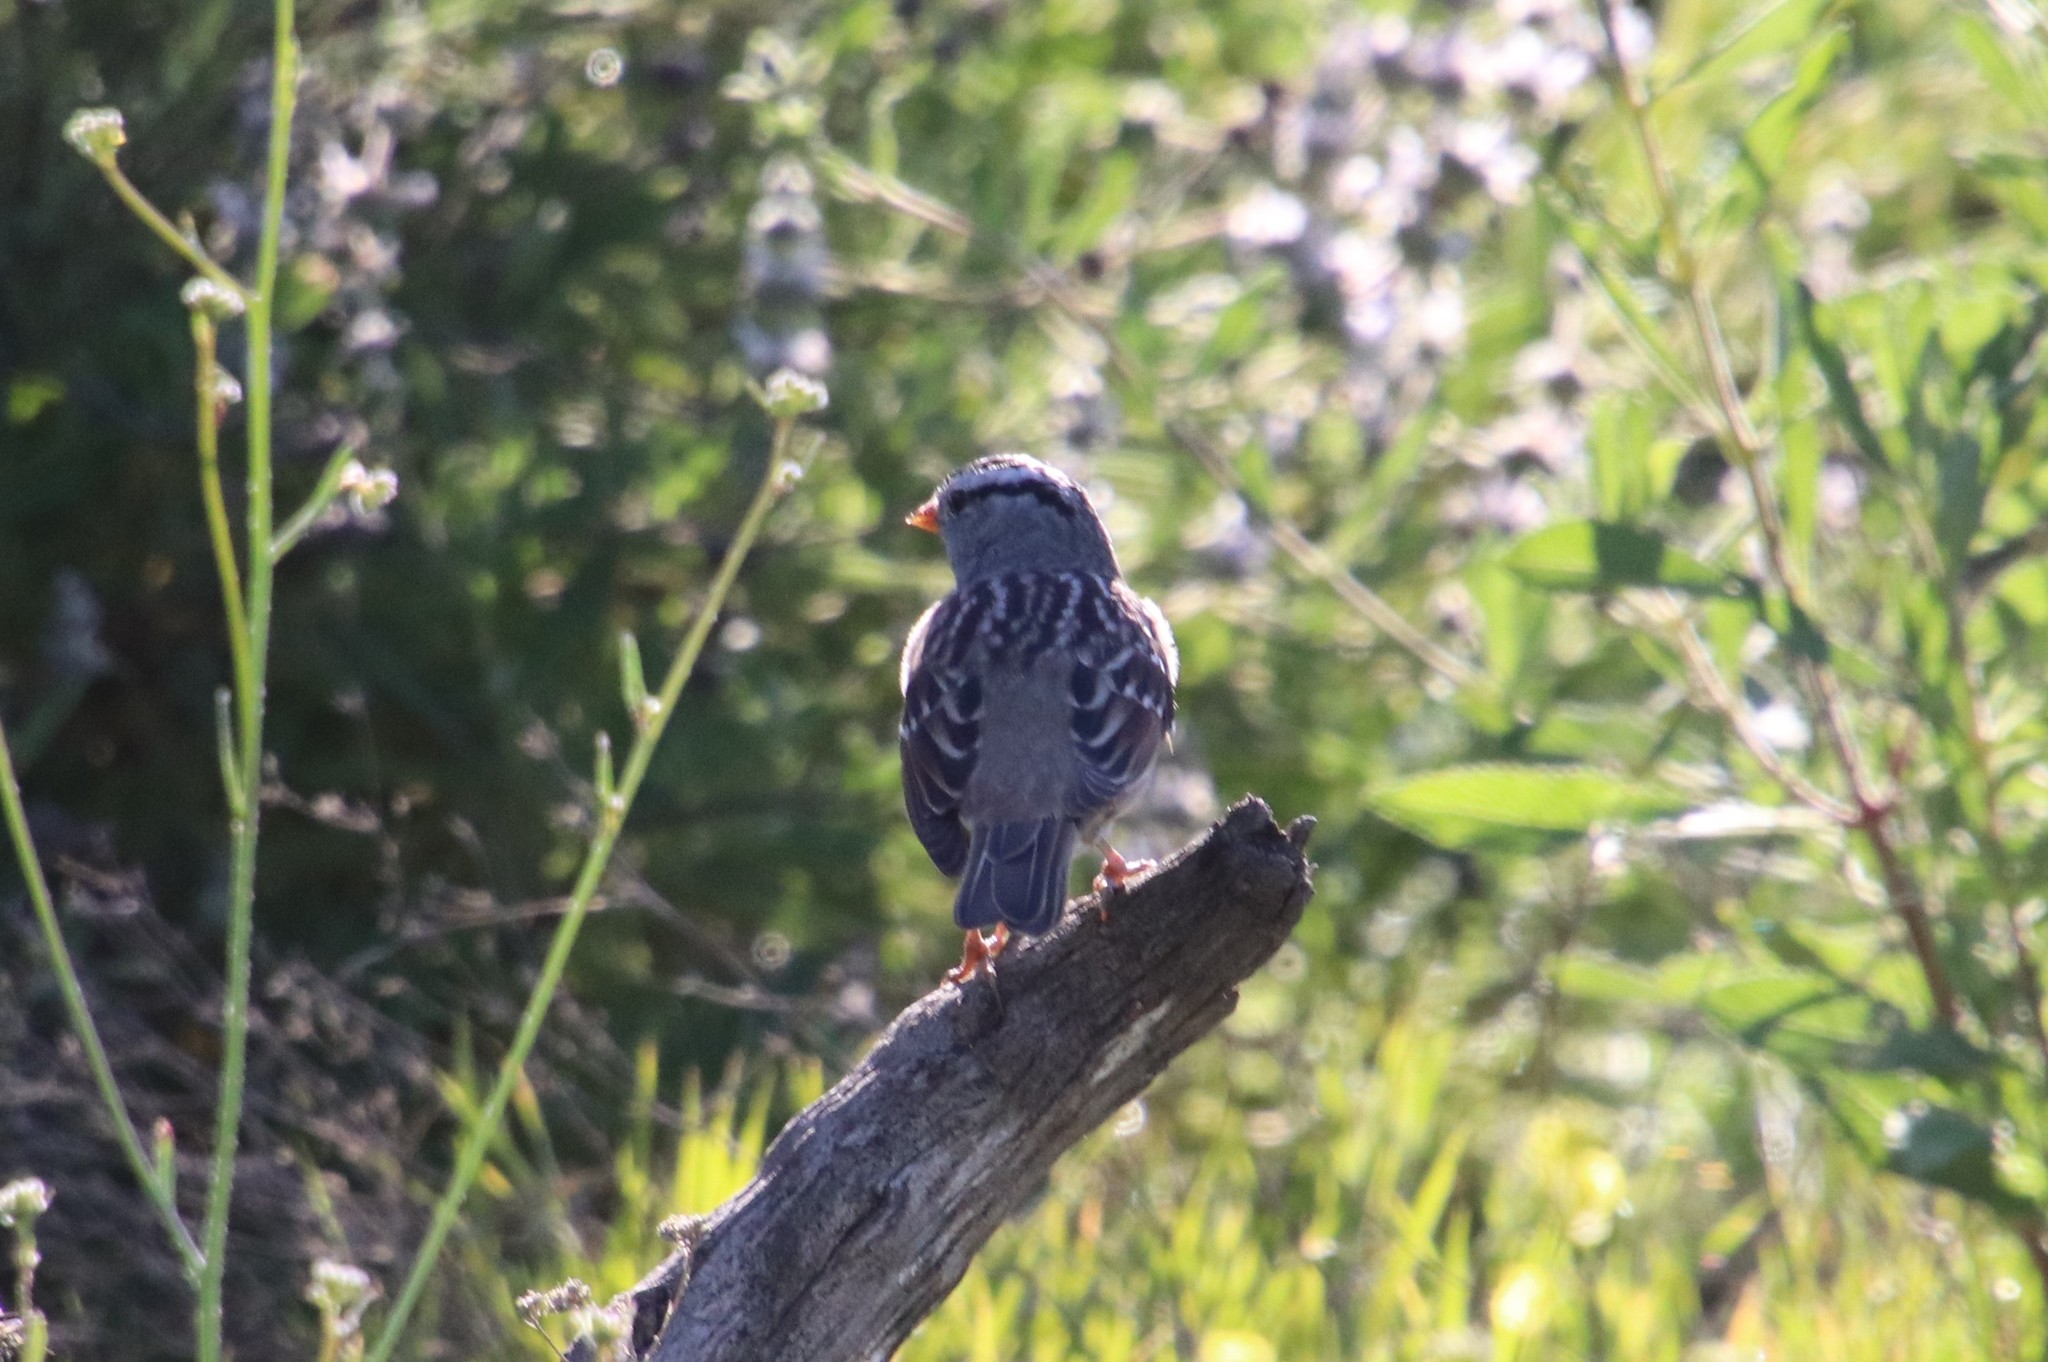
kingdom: Animalia
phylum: Chordata
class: Aves
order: Passeriformes
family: Passerellidae
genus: Zonotrichia
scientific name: Zonotrichia leucophrys
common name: White-crowned sparrow
